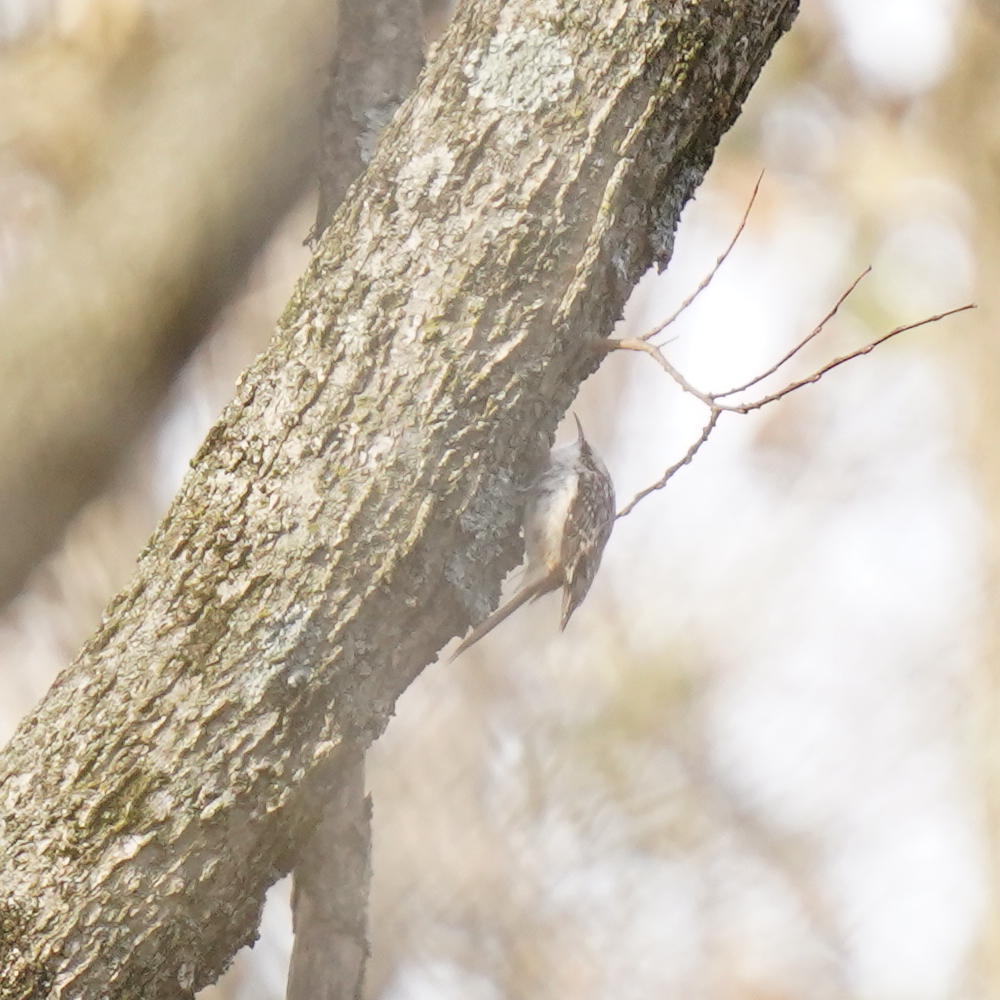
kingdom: Animalia
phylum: Chordata
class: Aves
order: Passeriformes
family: Certhiidae
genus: Certhia
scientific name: Certhia americana
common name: Brown creeper
